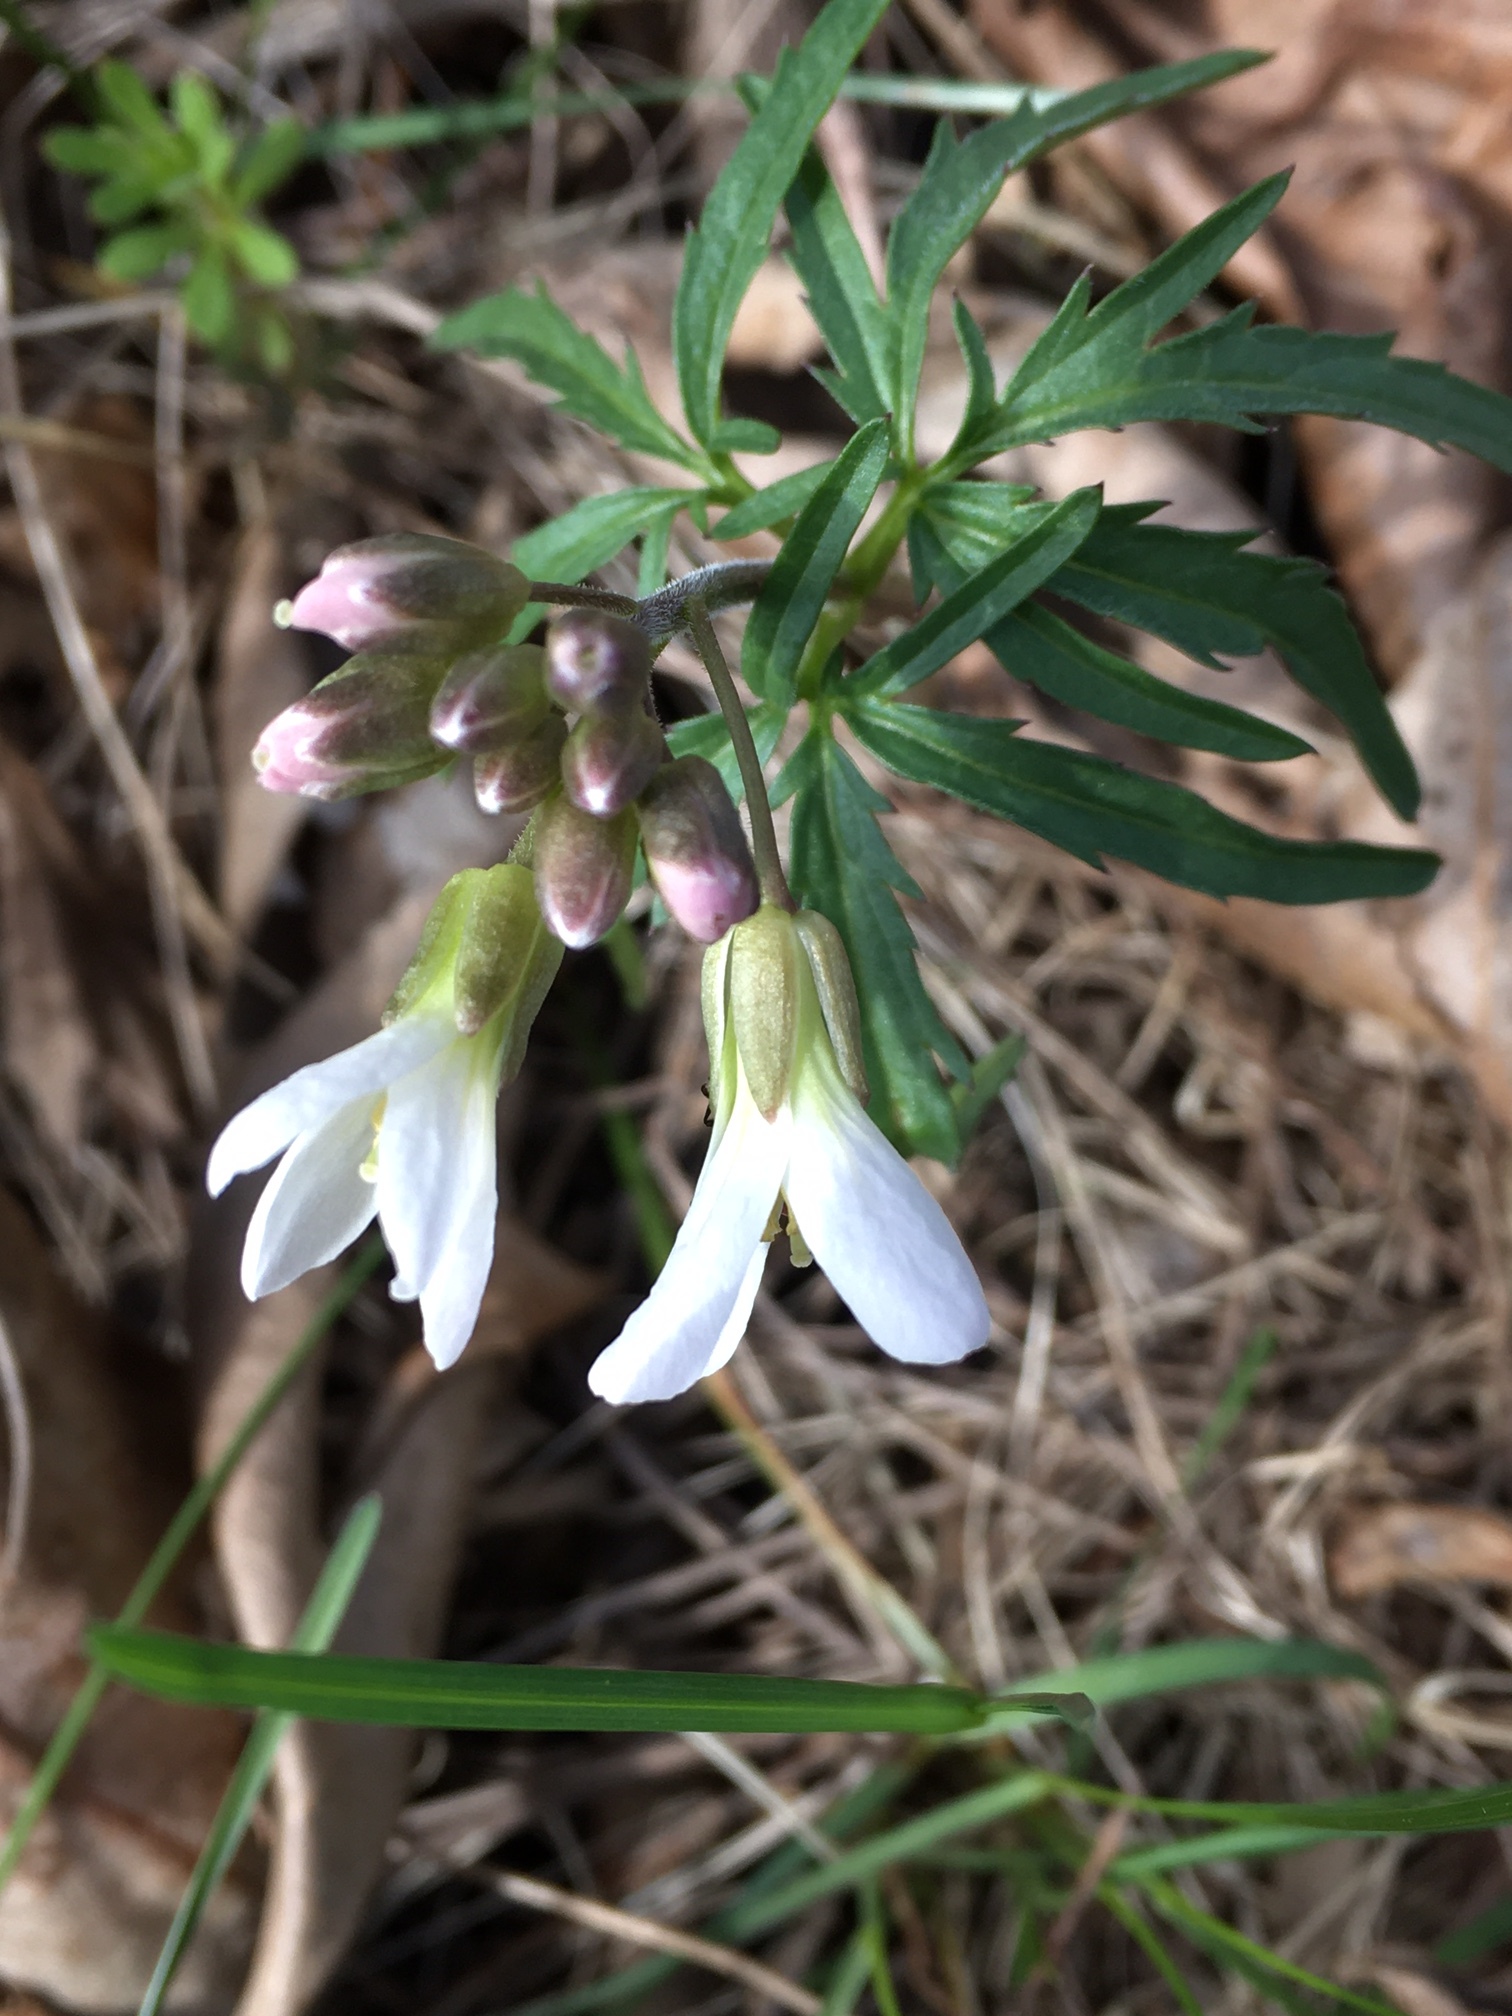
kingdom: Plantae
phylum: Tracheophyta
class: Magnoliopsida
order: Brassicales
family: Brassicaceae
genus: Cardamine
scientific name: Cardamine concatenata
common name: Cut-leaf toothcup
